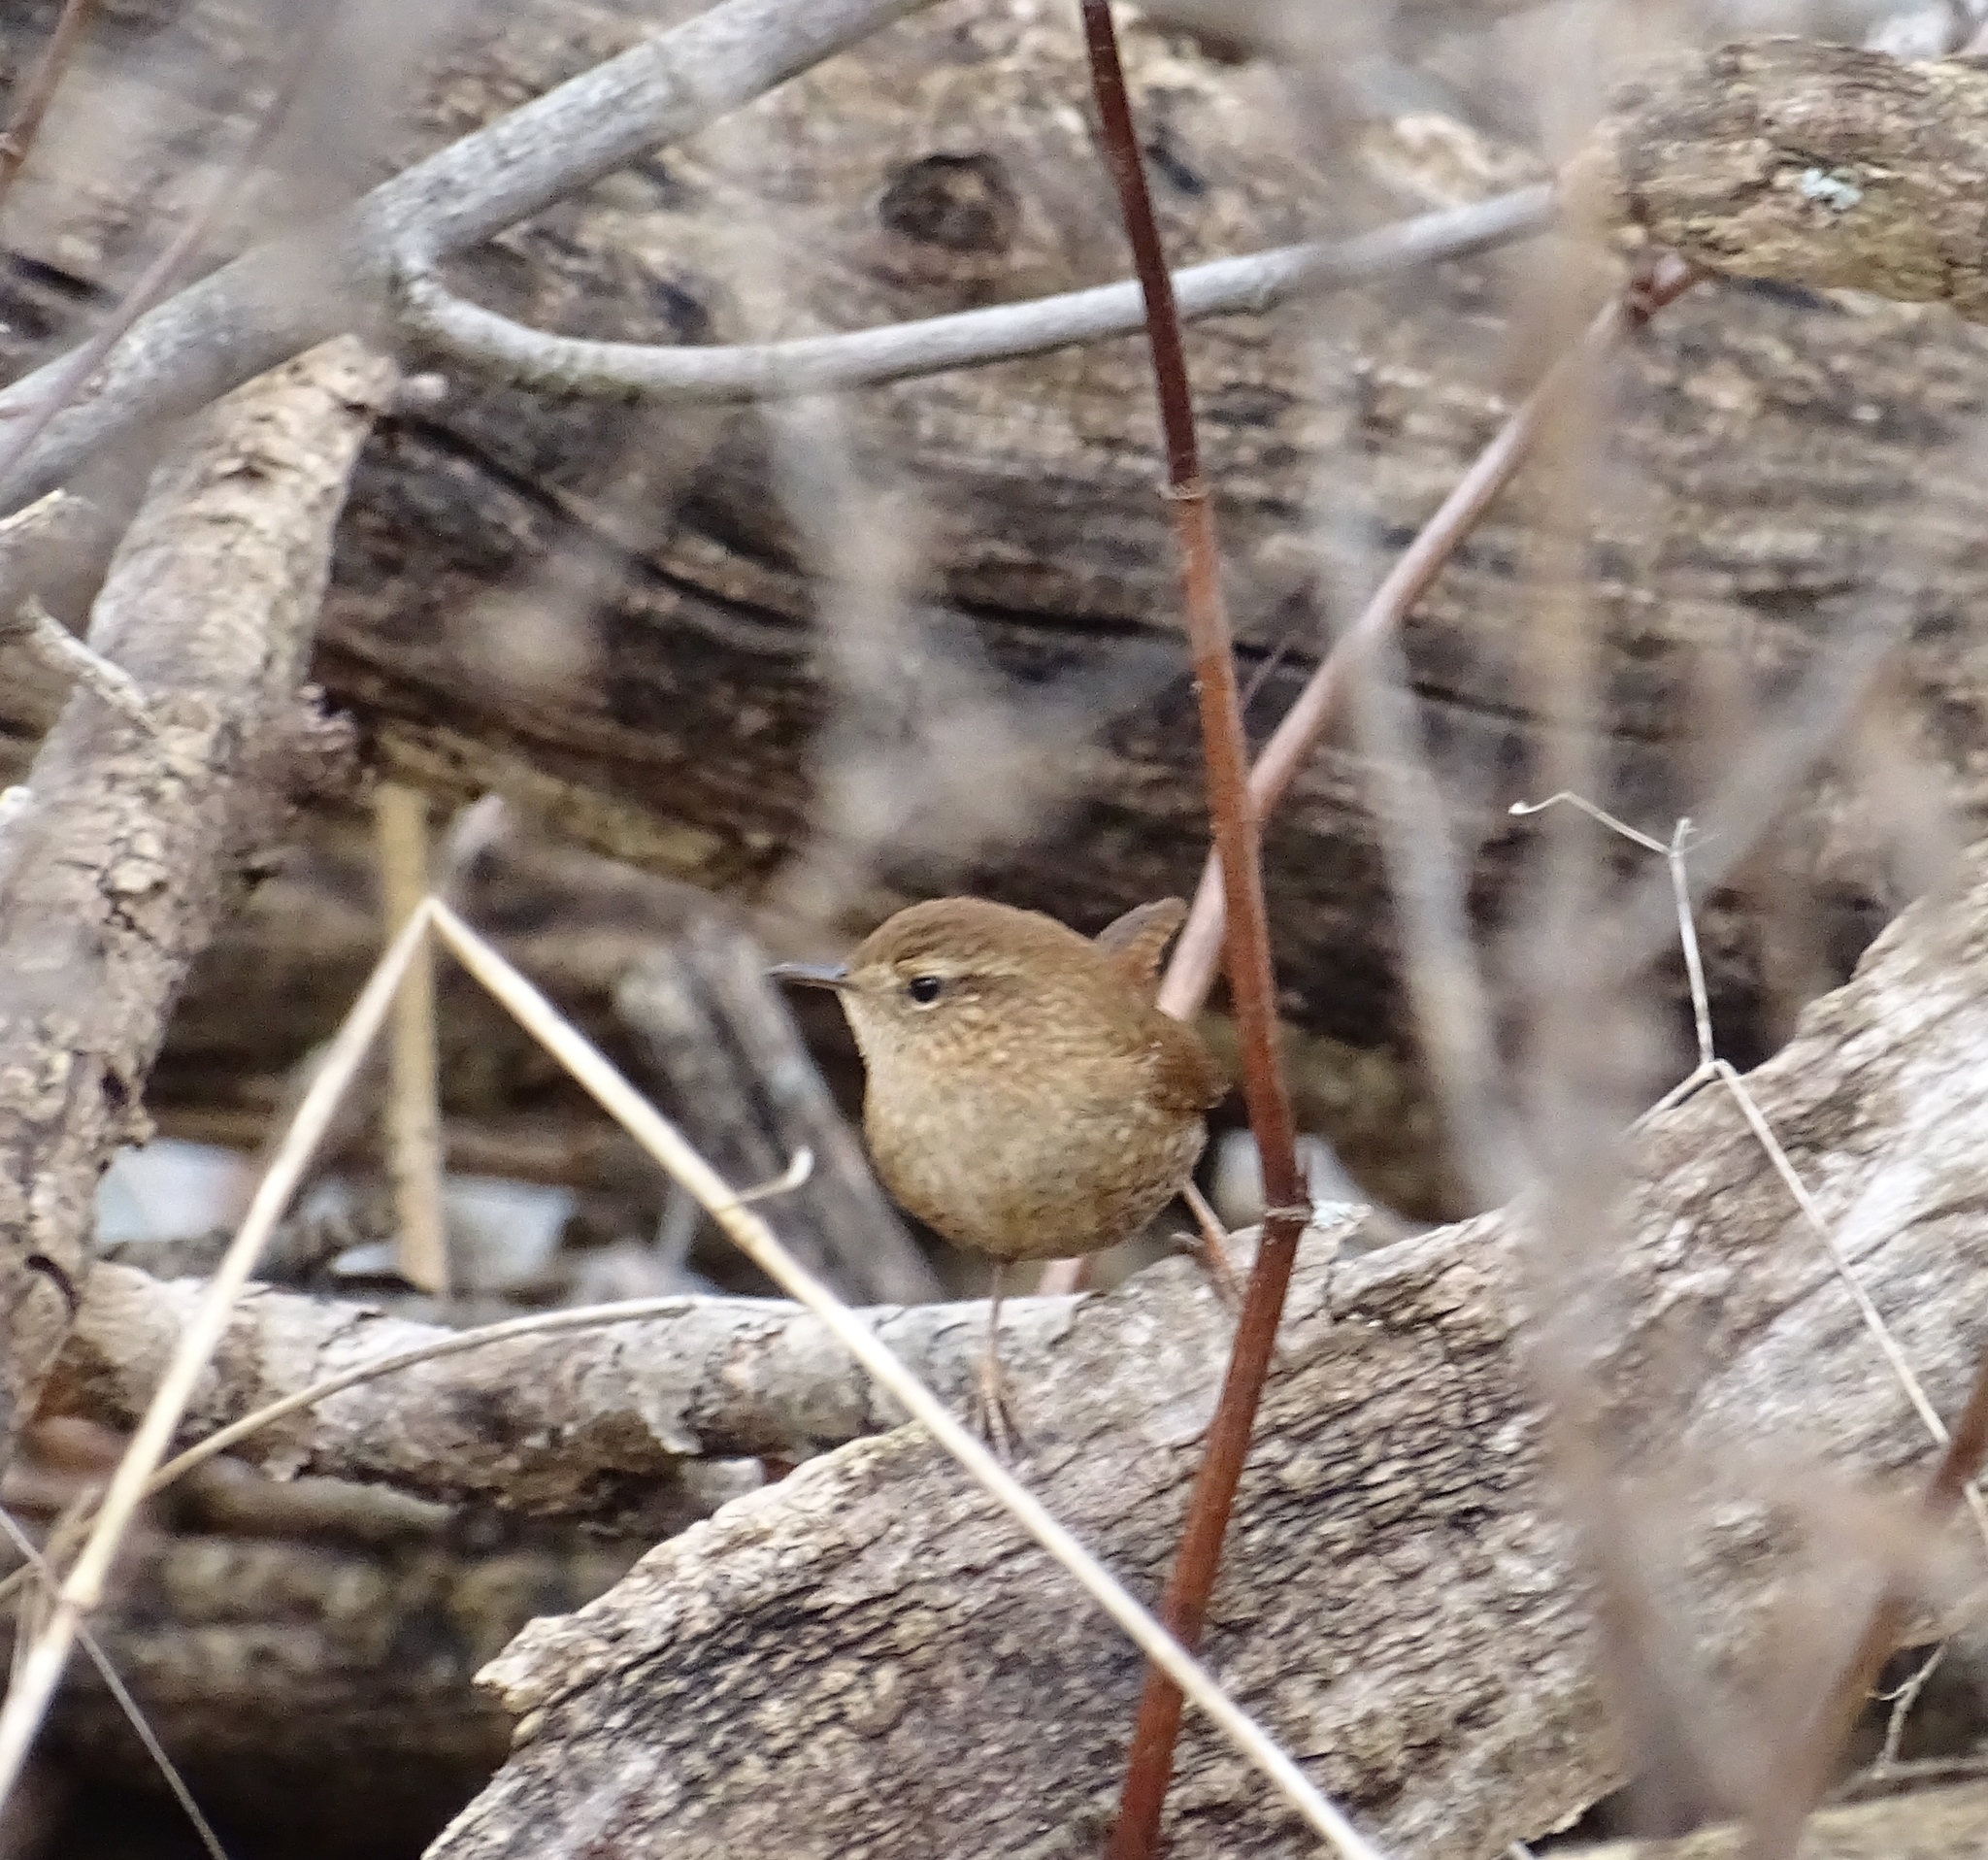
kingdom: Animalia
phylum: Chordata
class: Aves
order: Passeriformes
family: Troglodytidae
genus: Troglodytes
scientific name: Troglodytes hiemalis
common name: Winter wren
